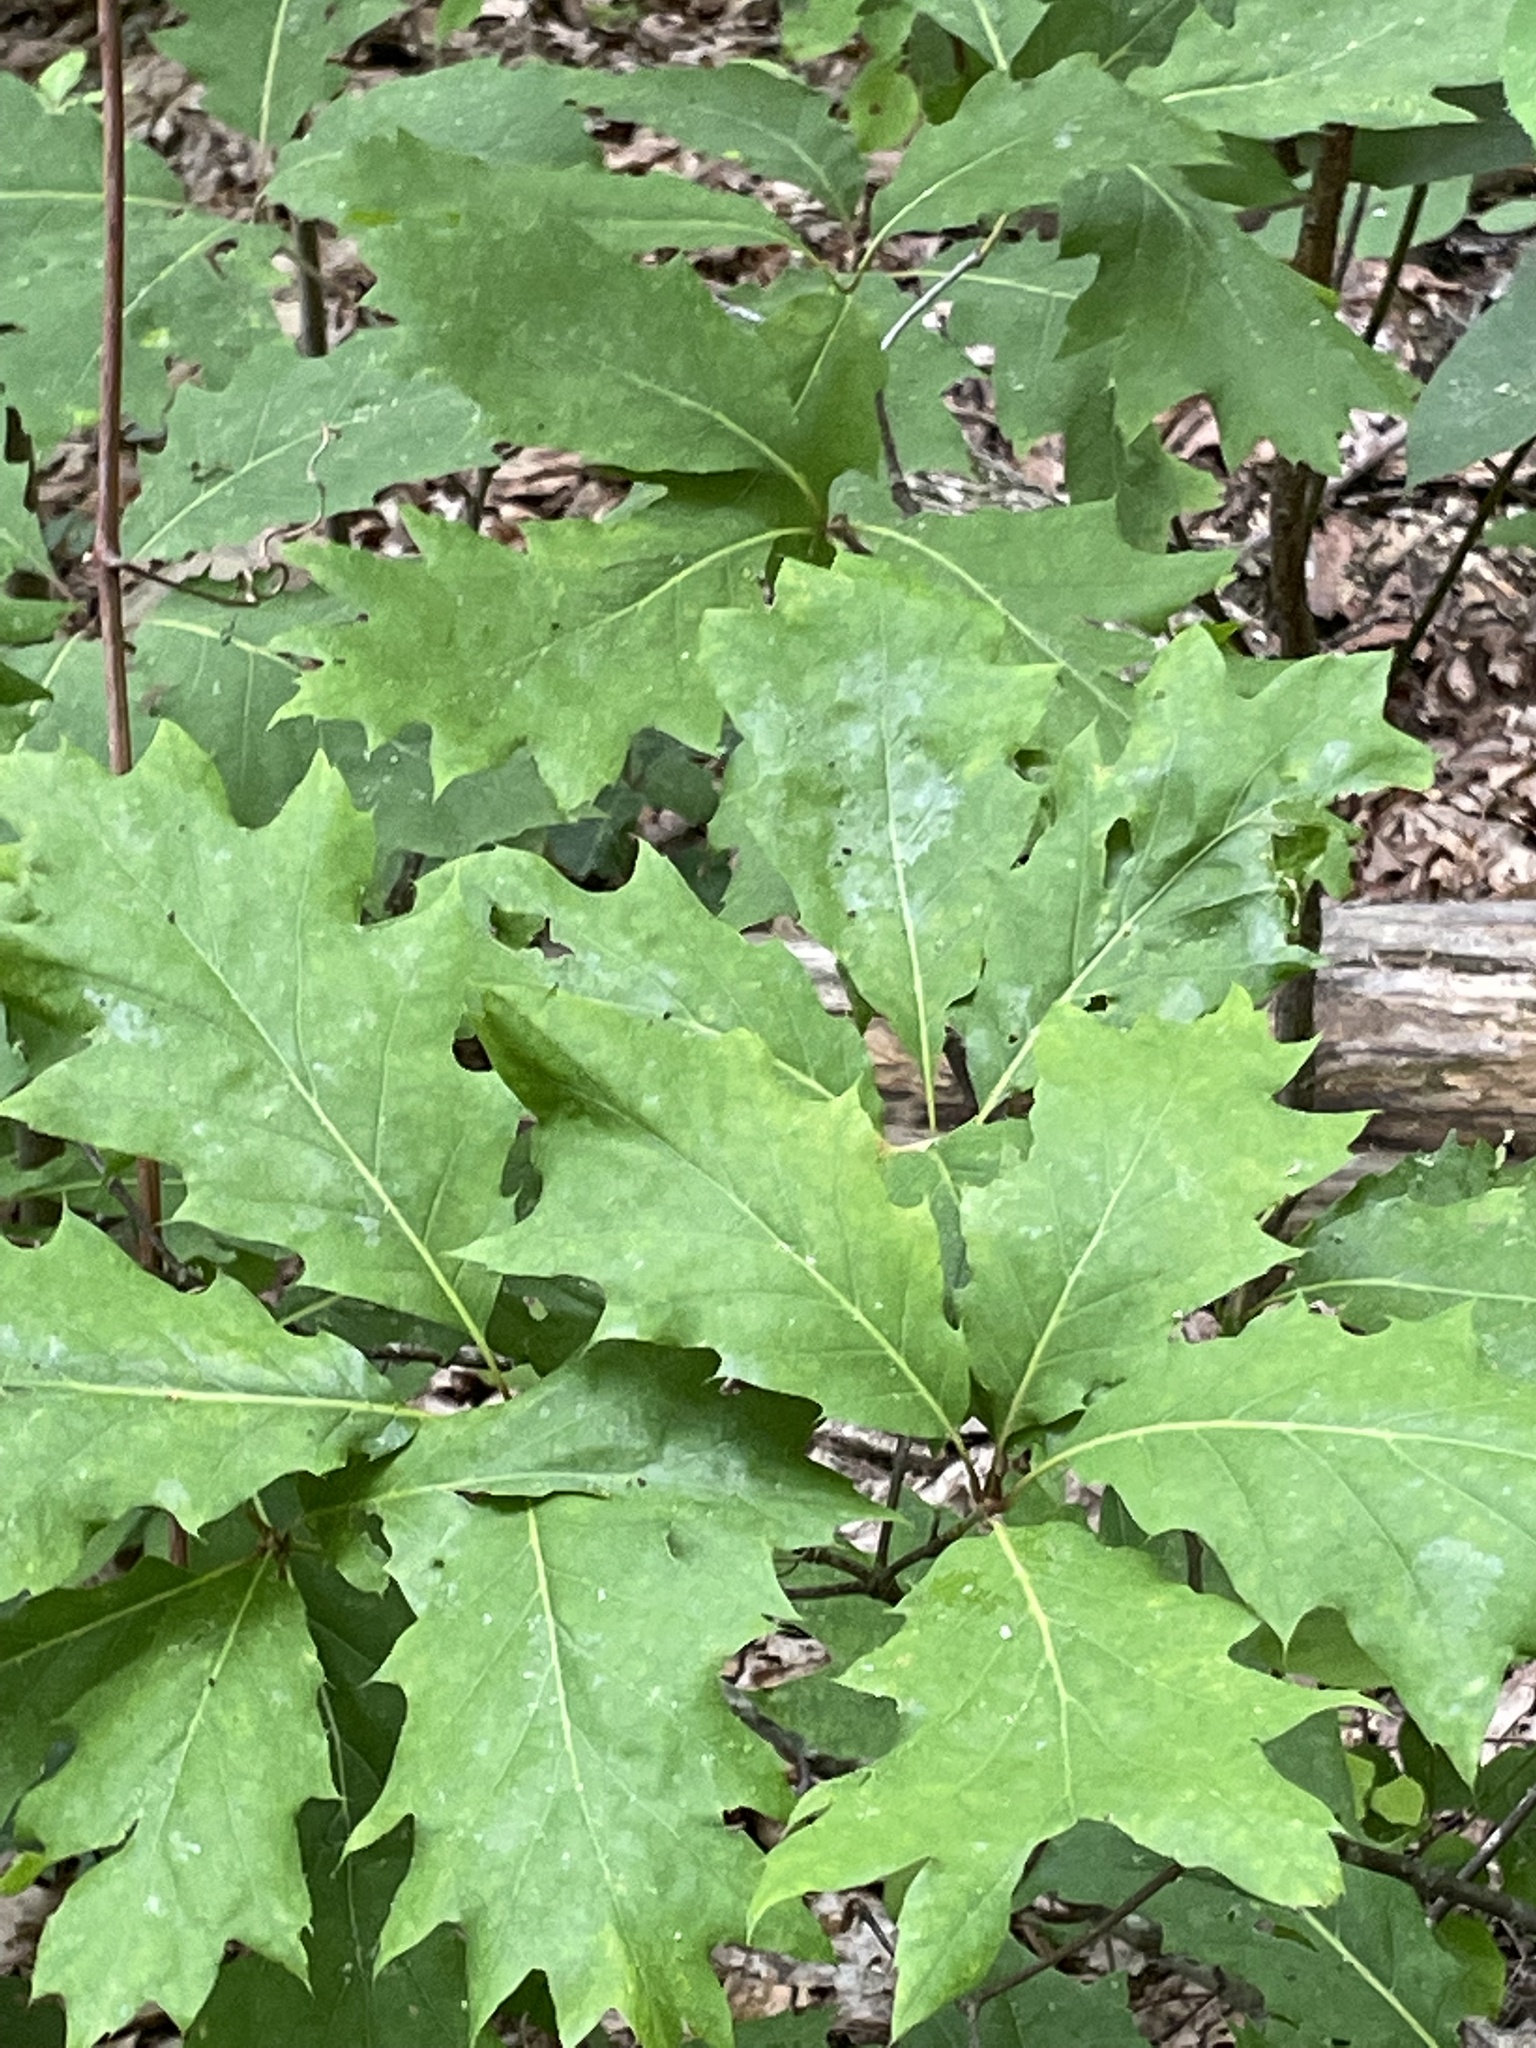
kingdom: Plantae
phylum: Tracheophyta
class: Magnoliopsida
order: Fagales
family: Fagaceae
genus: Quercus
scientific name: Quercus rubra
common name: Red oak
